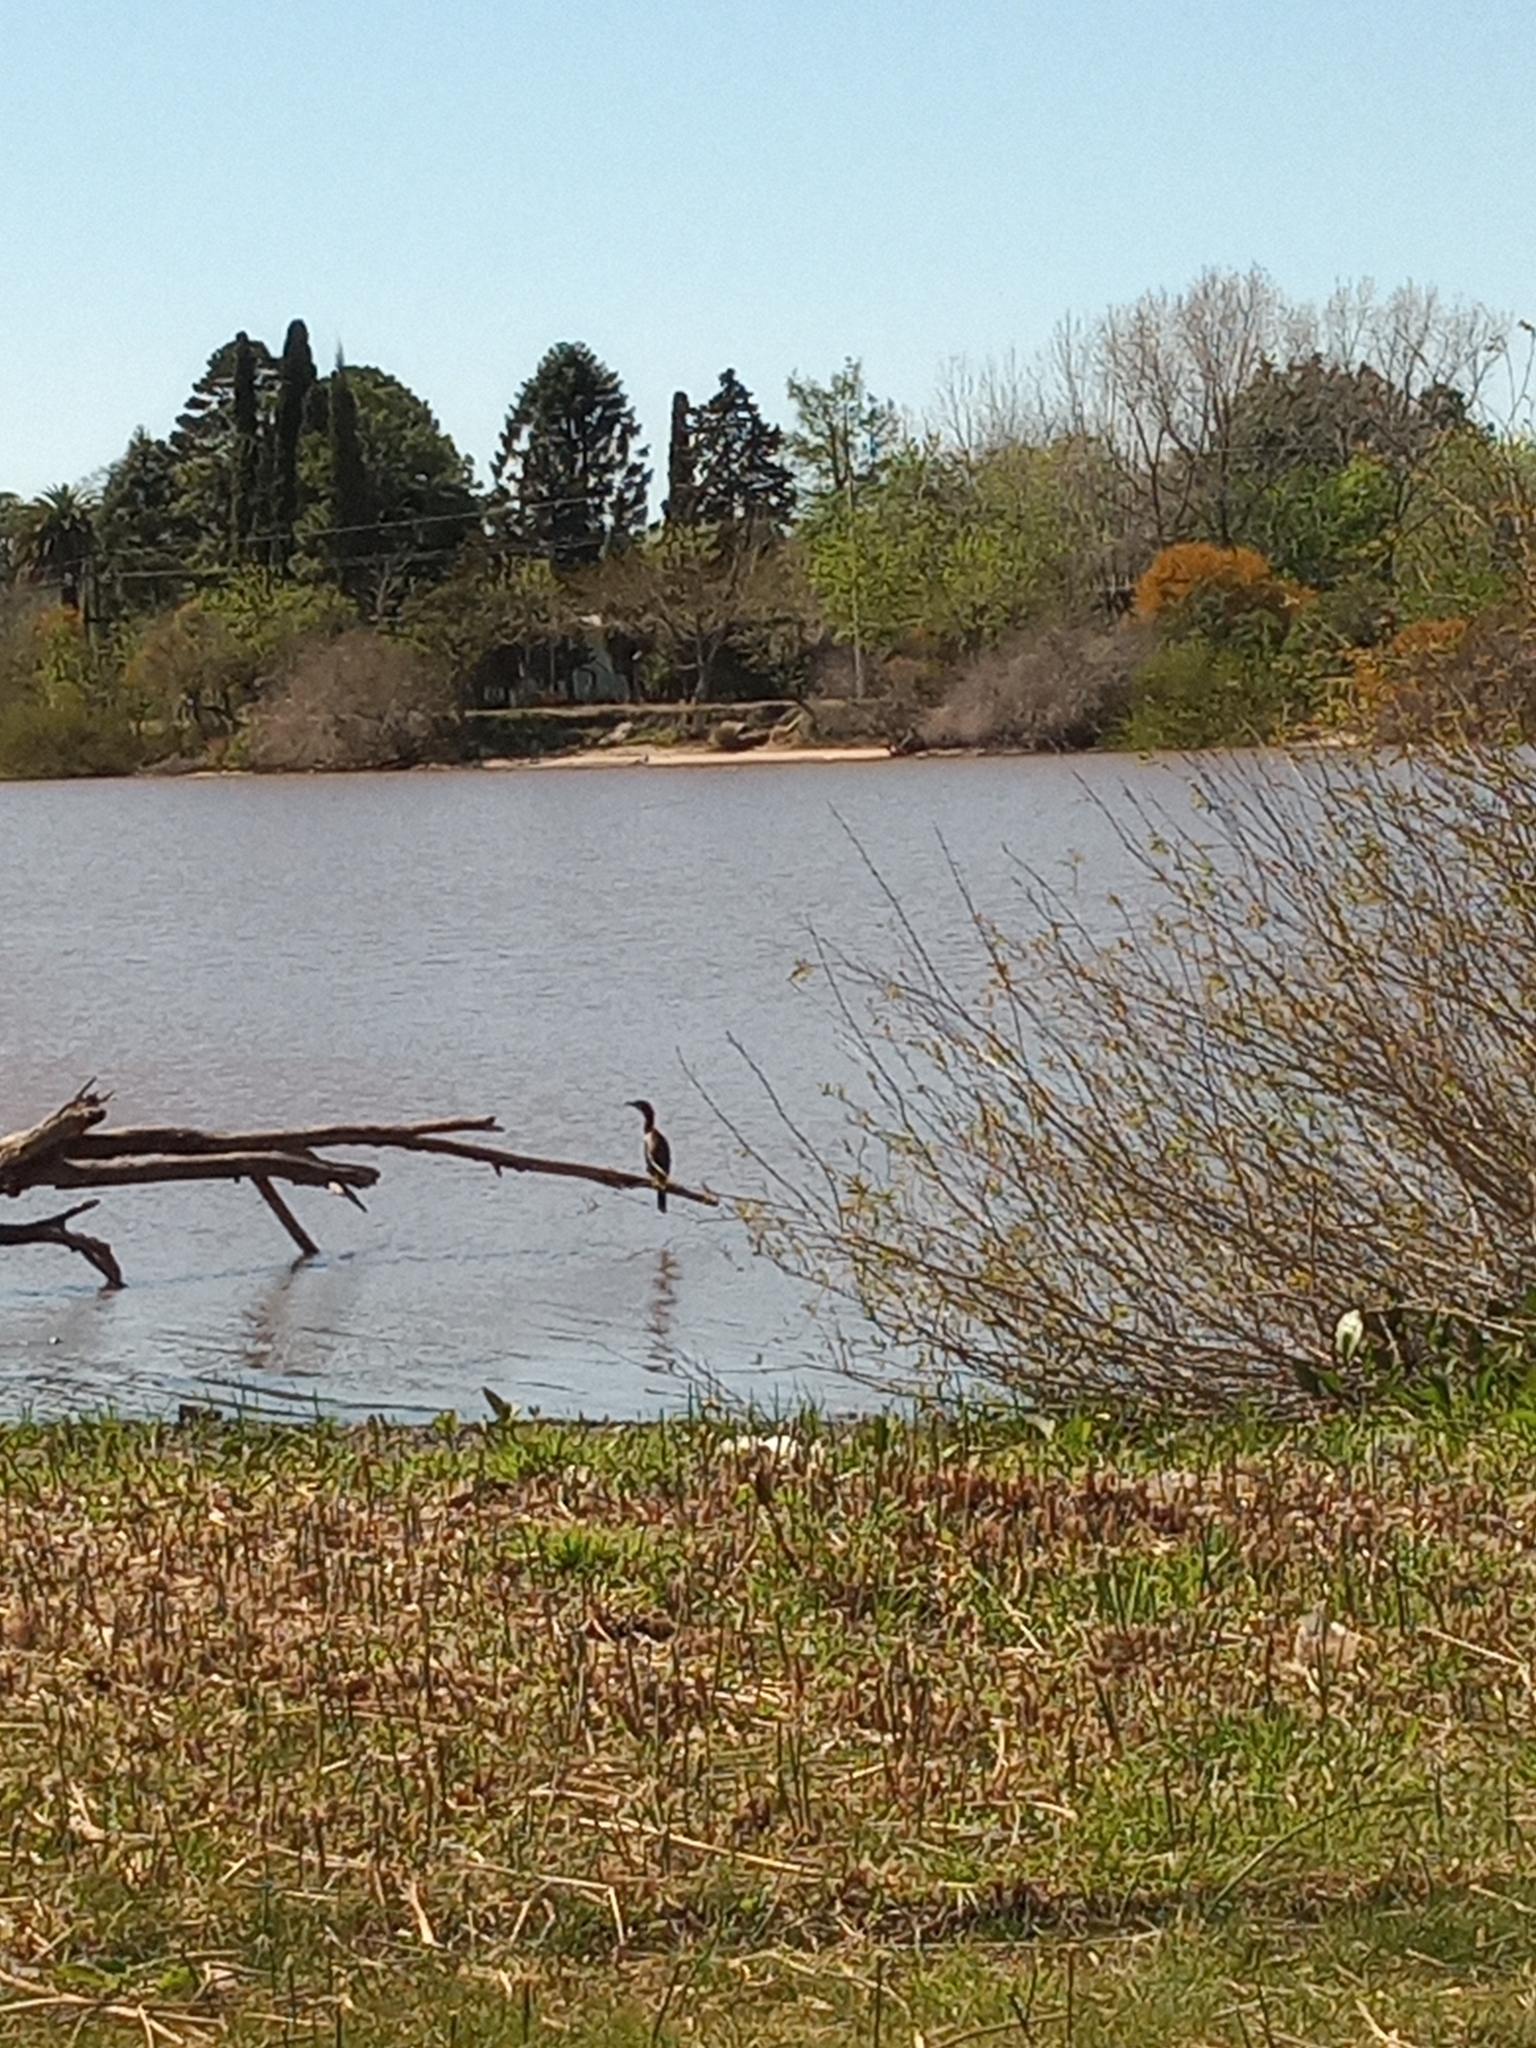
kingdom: Animalia
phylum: Chordata
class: Aves
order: Suliformes
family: Phalacrocoracidae
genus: Phalacrocorax
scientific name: Phalacrocorax brasilianus
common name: Neotropic cormorant
